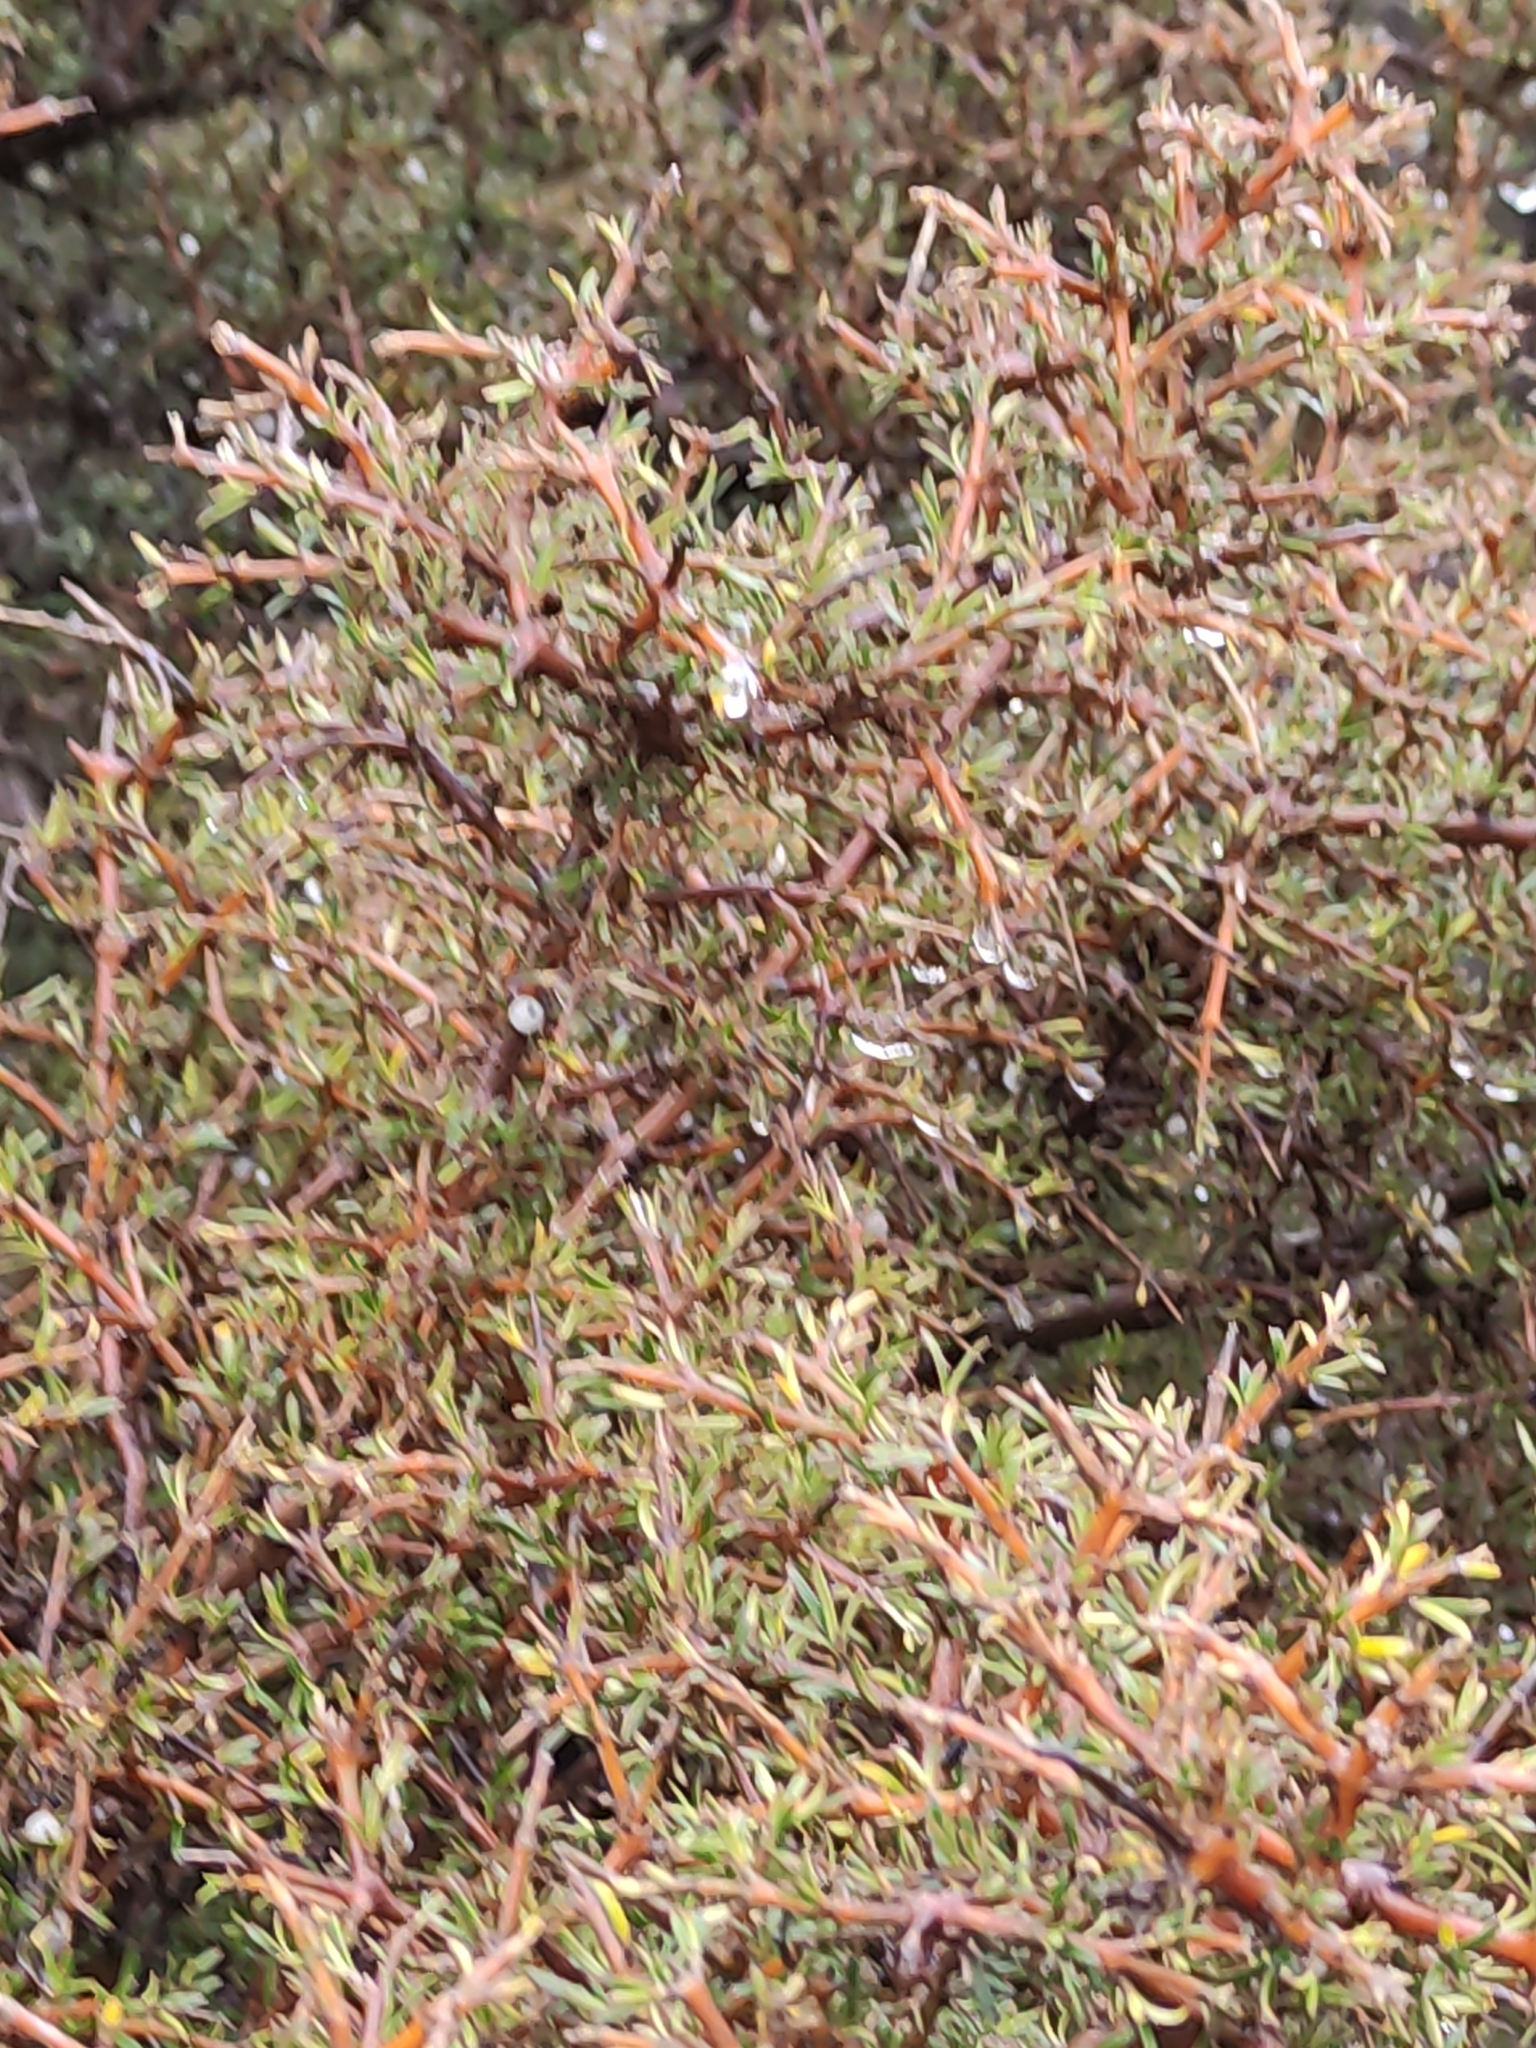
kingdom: Plantae
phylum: Tracheophyta
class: Magnoliopsida
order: Gentianales
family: Rubiaceae
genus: Coprosma
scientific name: Coprosma rugosa
